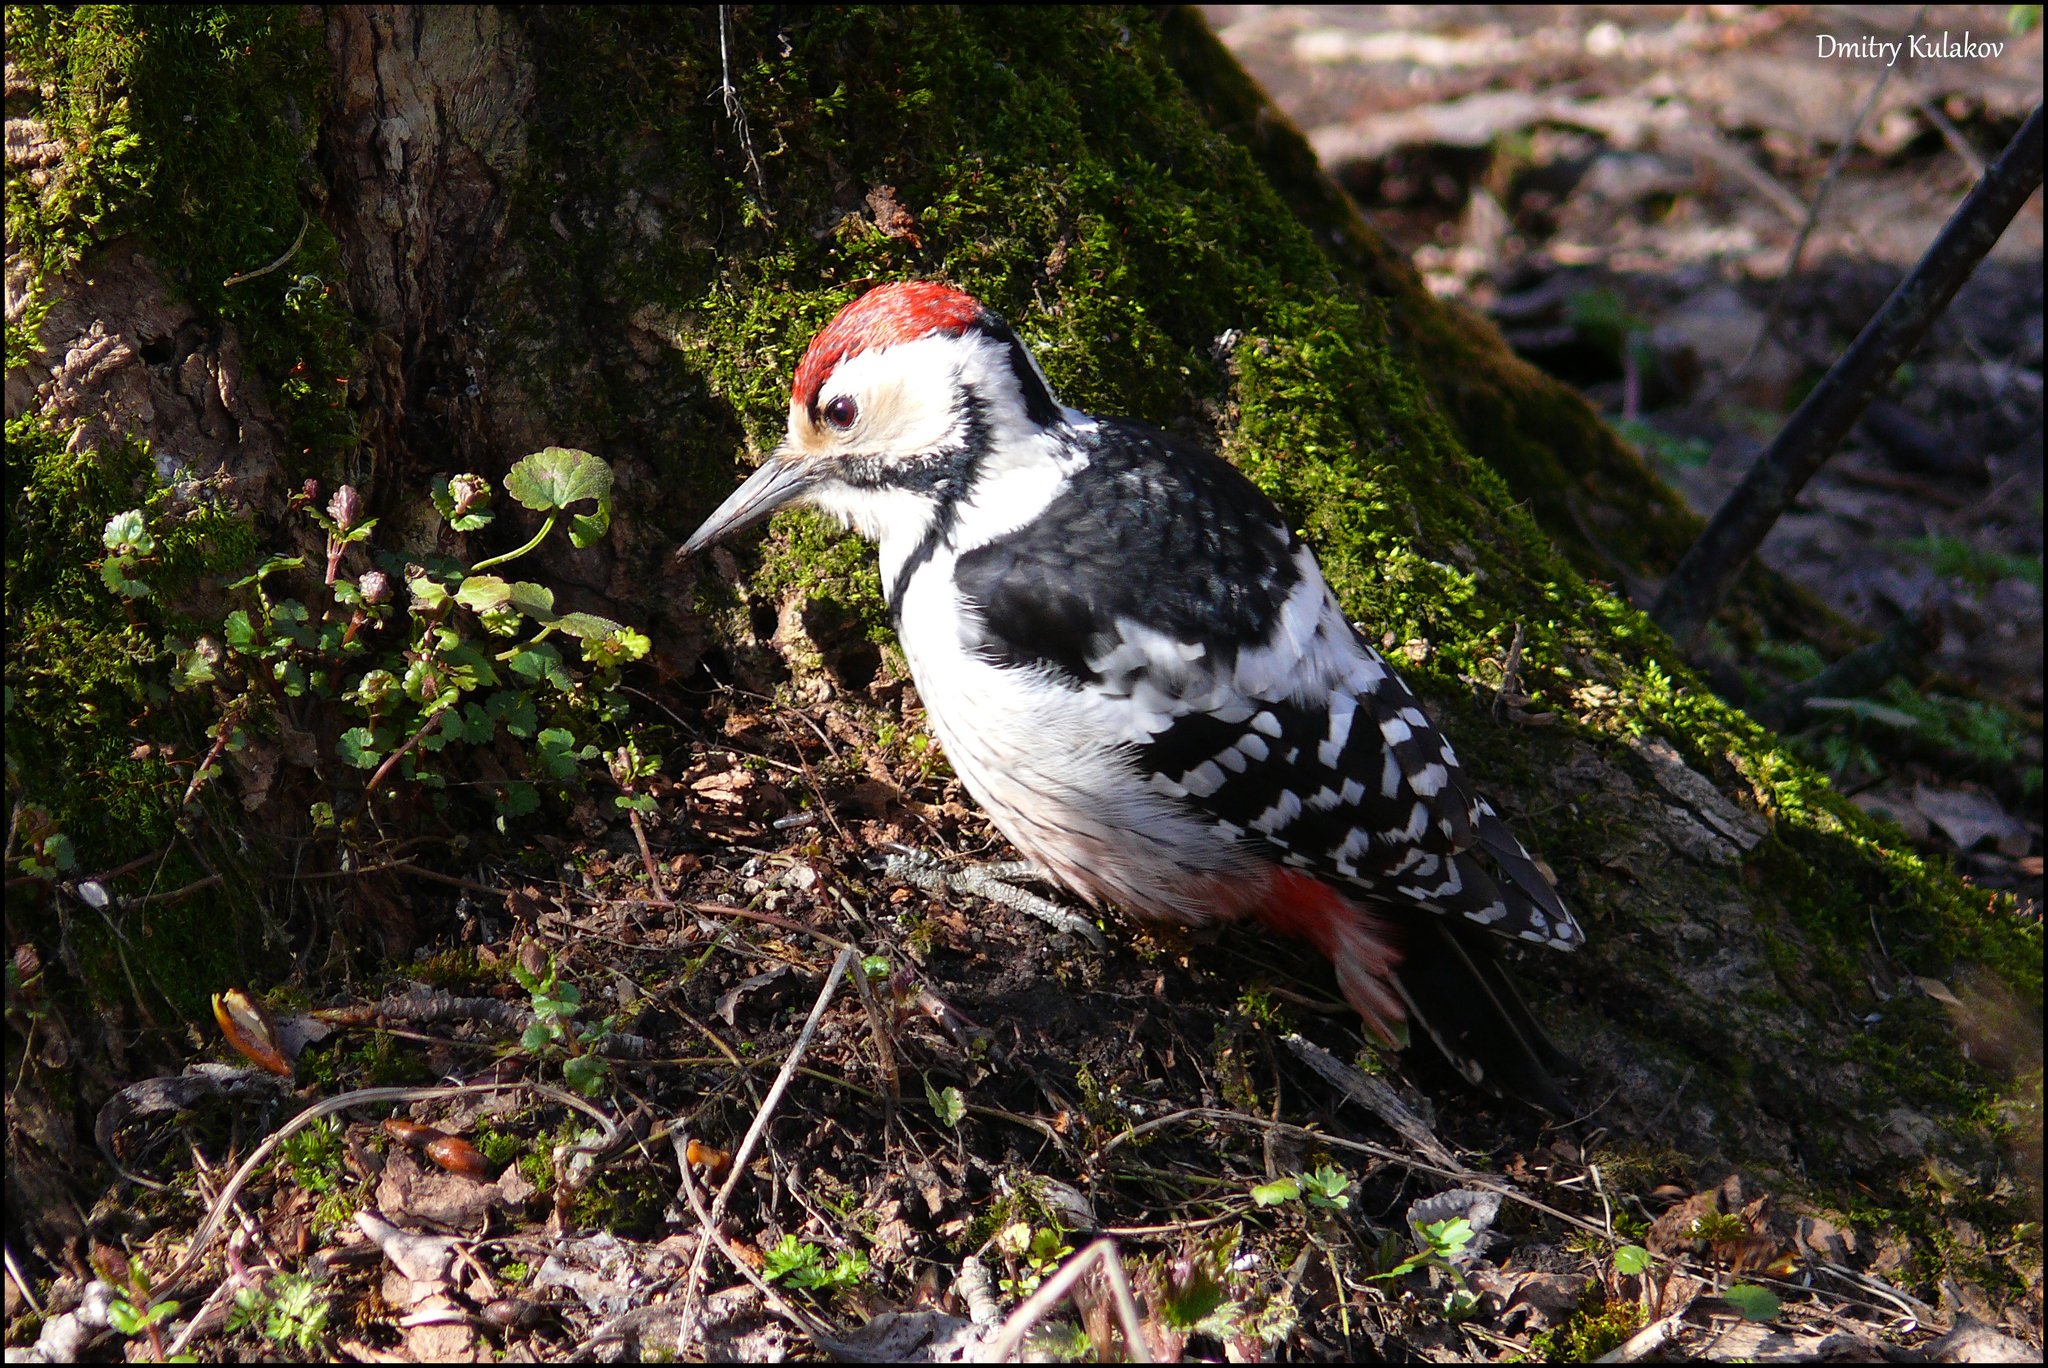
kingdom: Animalia
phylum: Chordata
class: Aves
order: Piciformes
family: Picidae
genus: Dendrocopos
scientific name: Dendrocopos leucotos
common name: White-backed woodpecker
